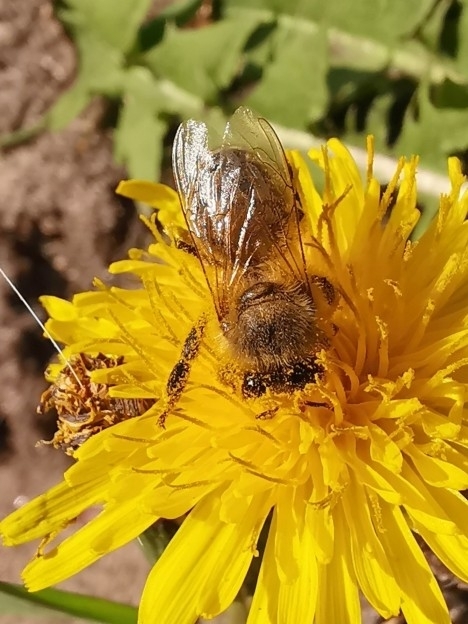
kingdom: Animalia
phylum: Arthropoda
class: Insecta
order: Hymenoptera
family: Apidae
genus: Apis
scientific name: Apis mellifera
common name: Honey bee
